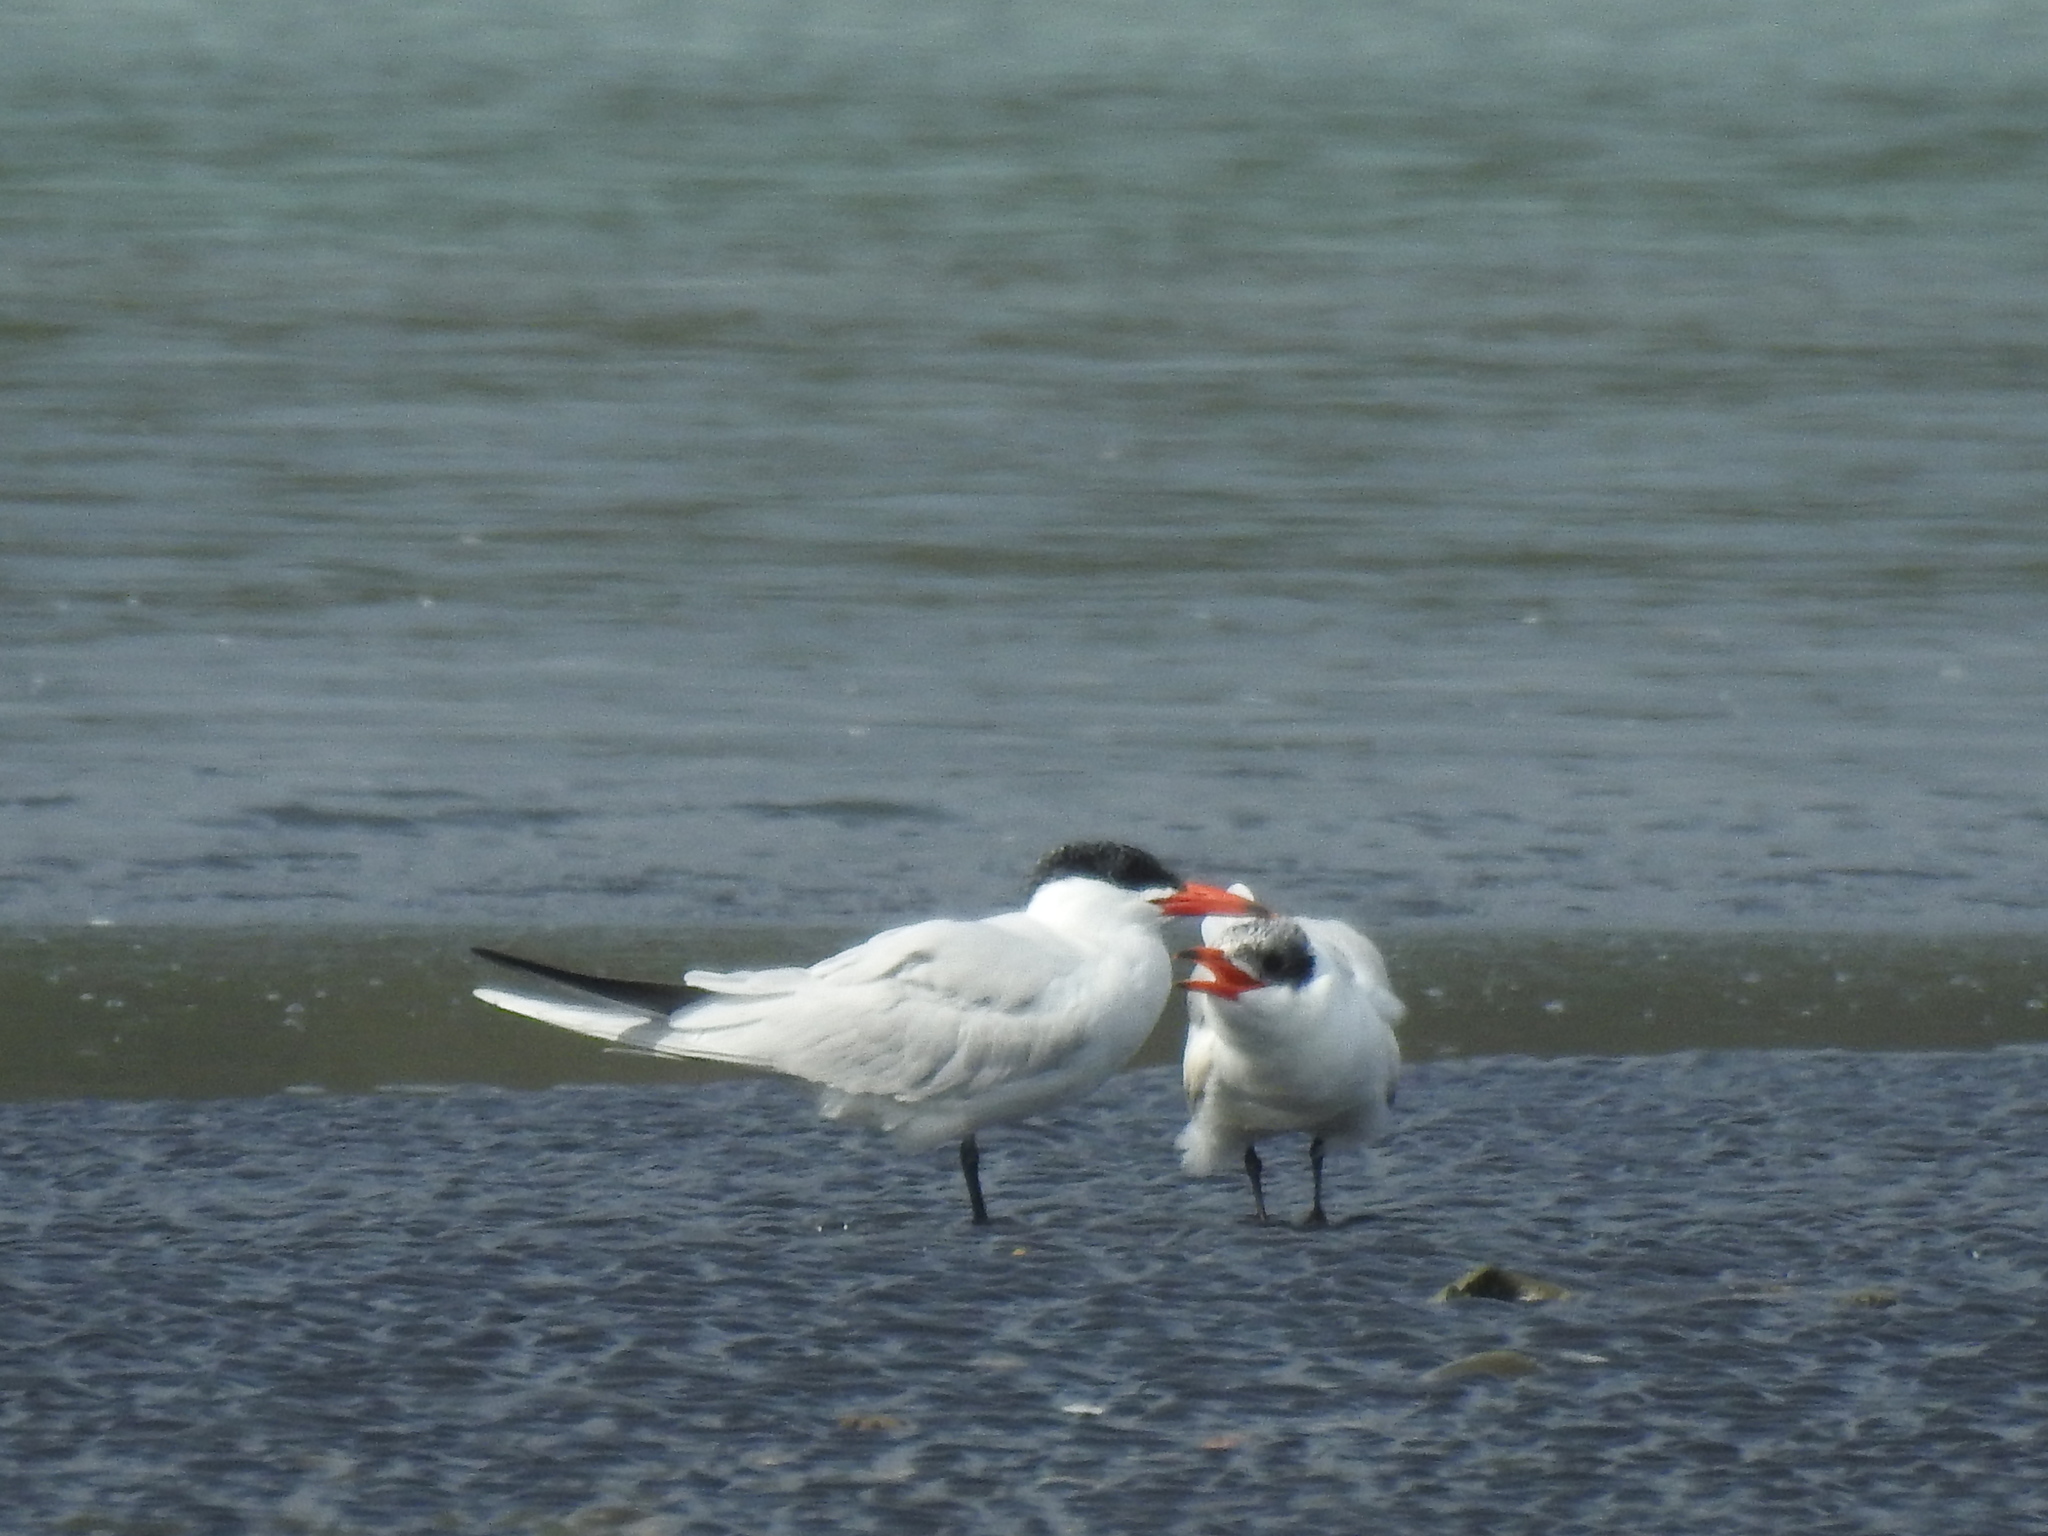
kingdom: Animalia
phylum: Chordata
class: Aves
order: Charadriiformes
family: Laridae
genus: Hydroprogne
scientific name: Hydroprogne caspia
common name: Caspian tern
